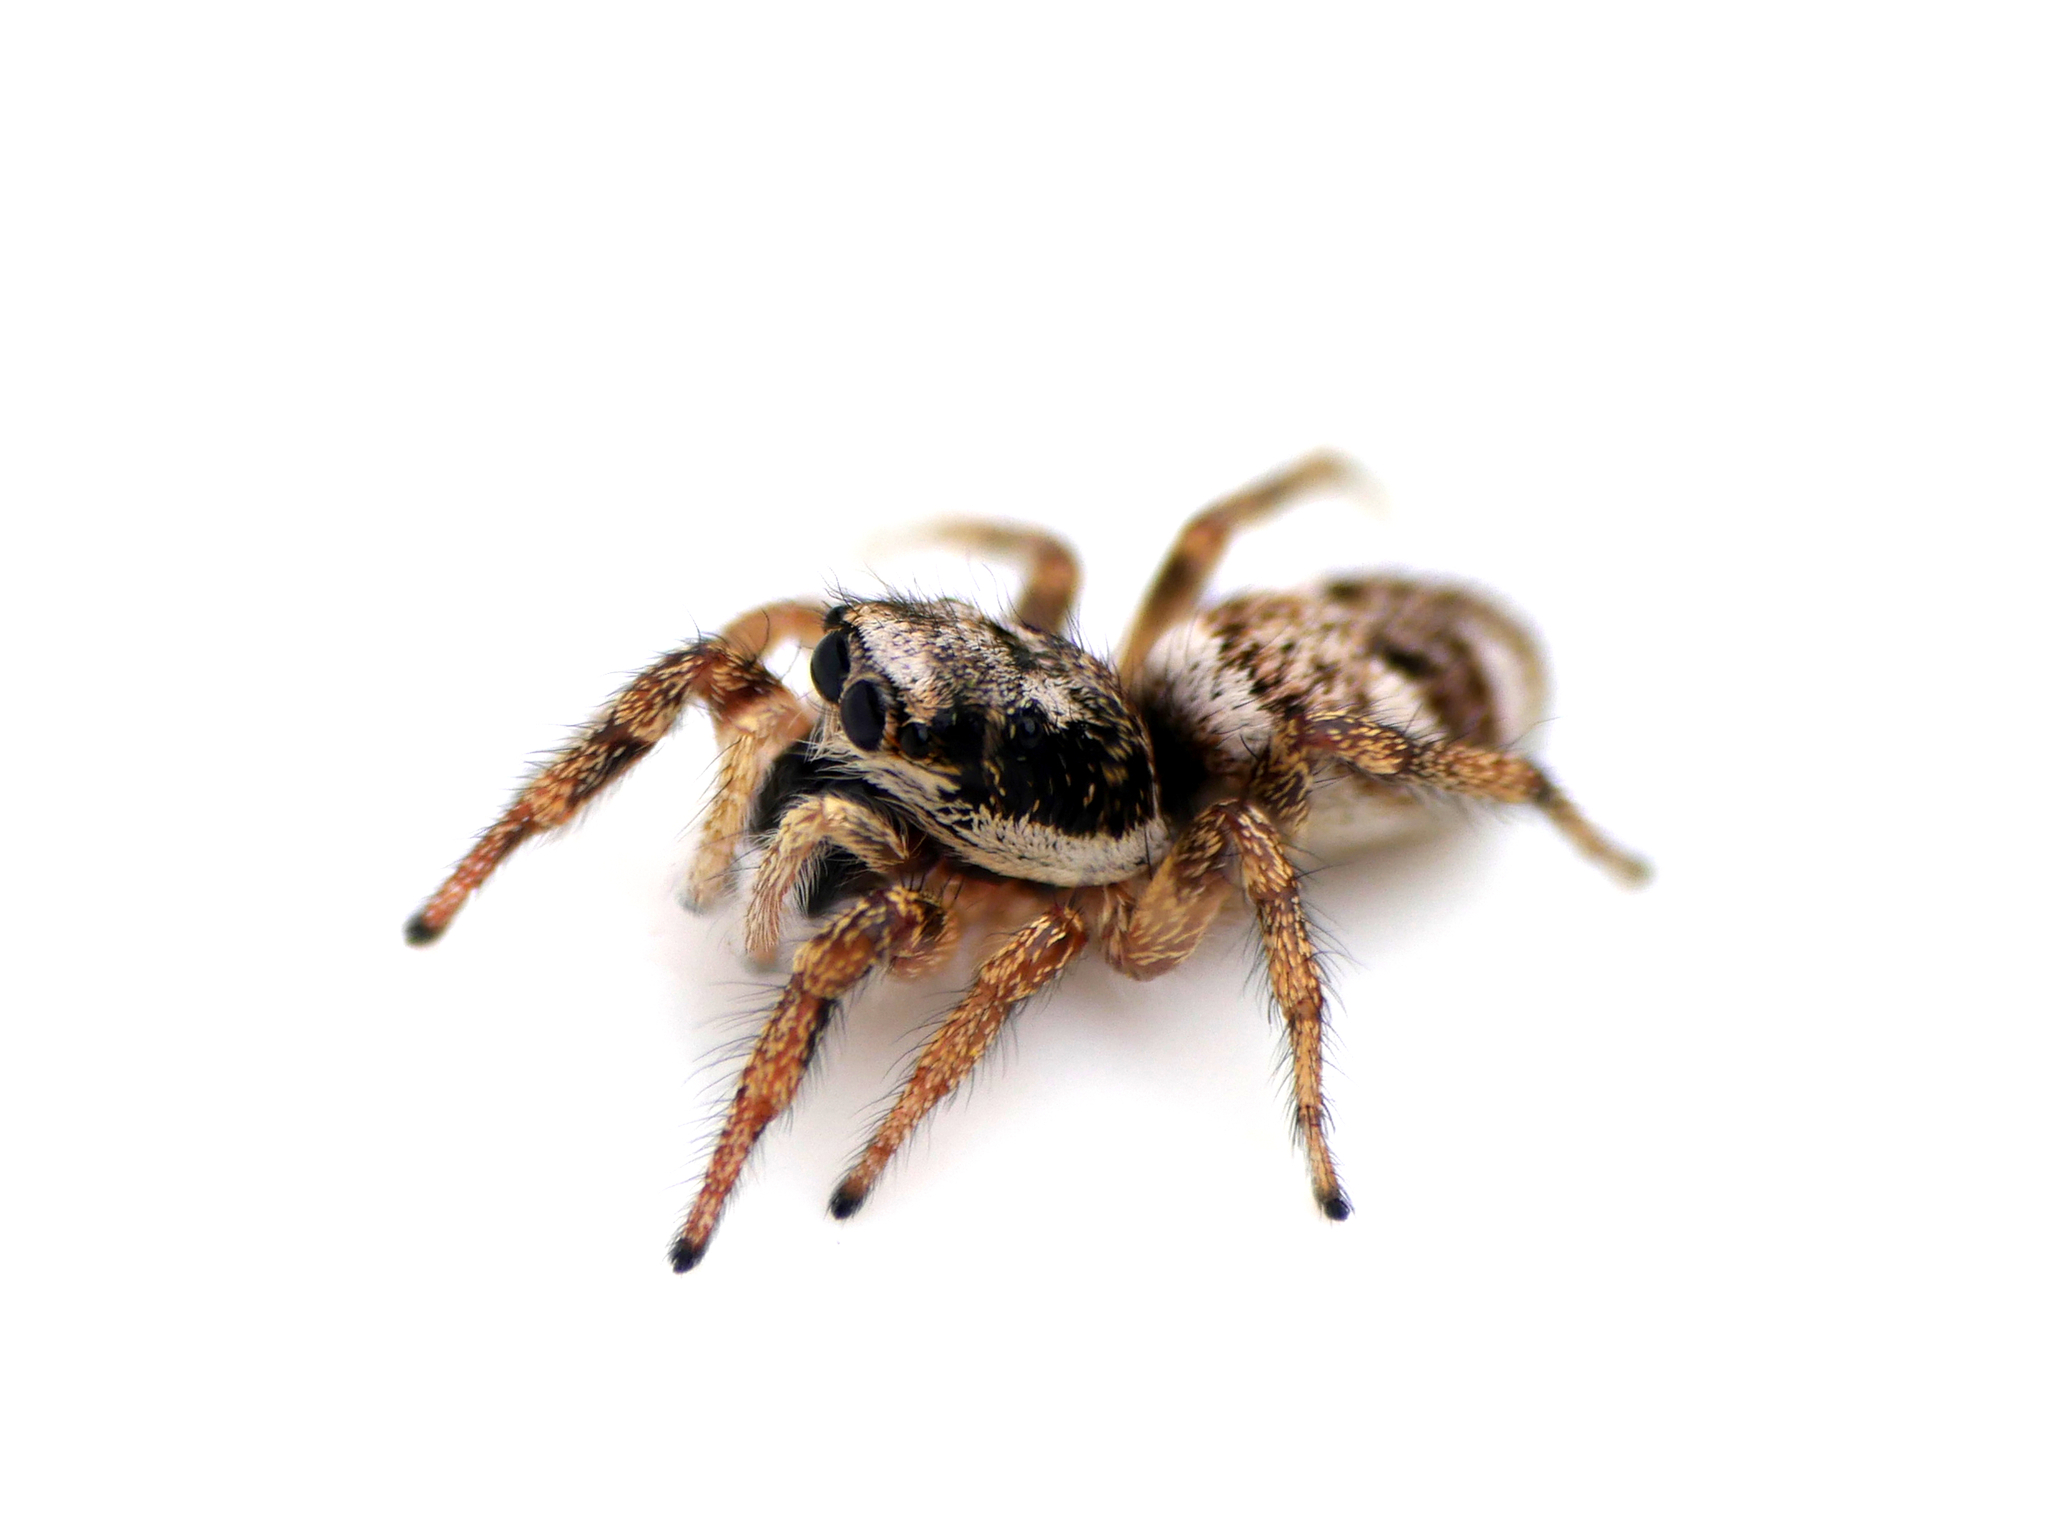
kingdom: Animalia
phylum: Arthropoda
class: Arachnida
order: Araneae
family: Salticidae
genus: Salticus
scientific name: Salticus scenicus
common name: Zebra jumper
